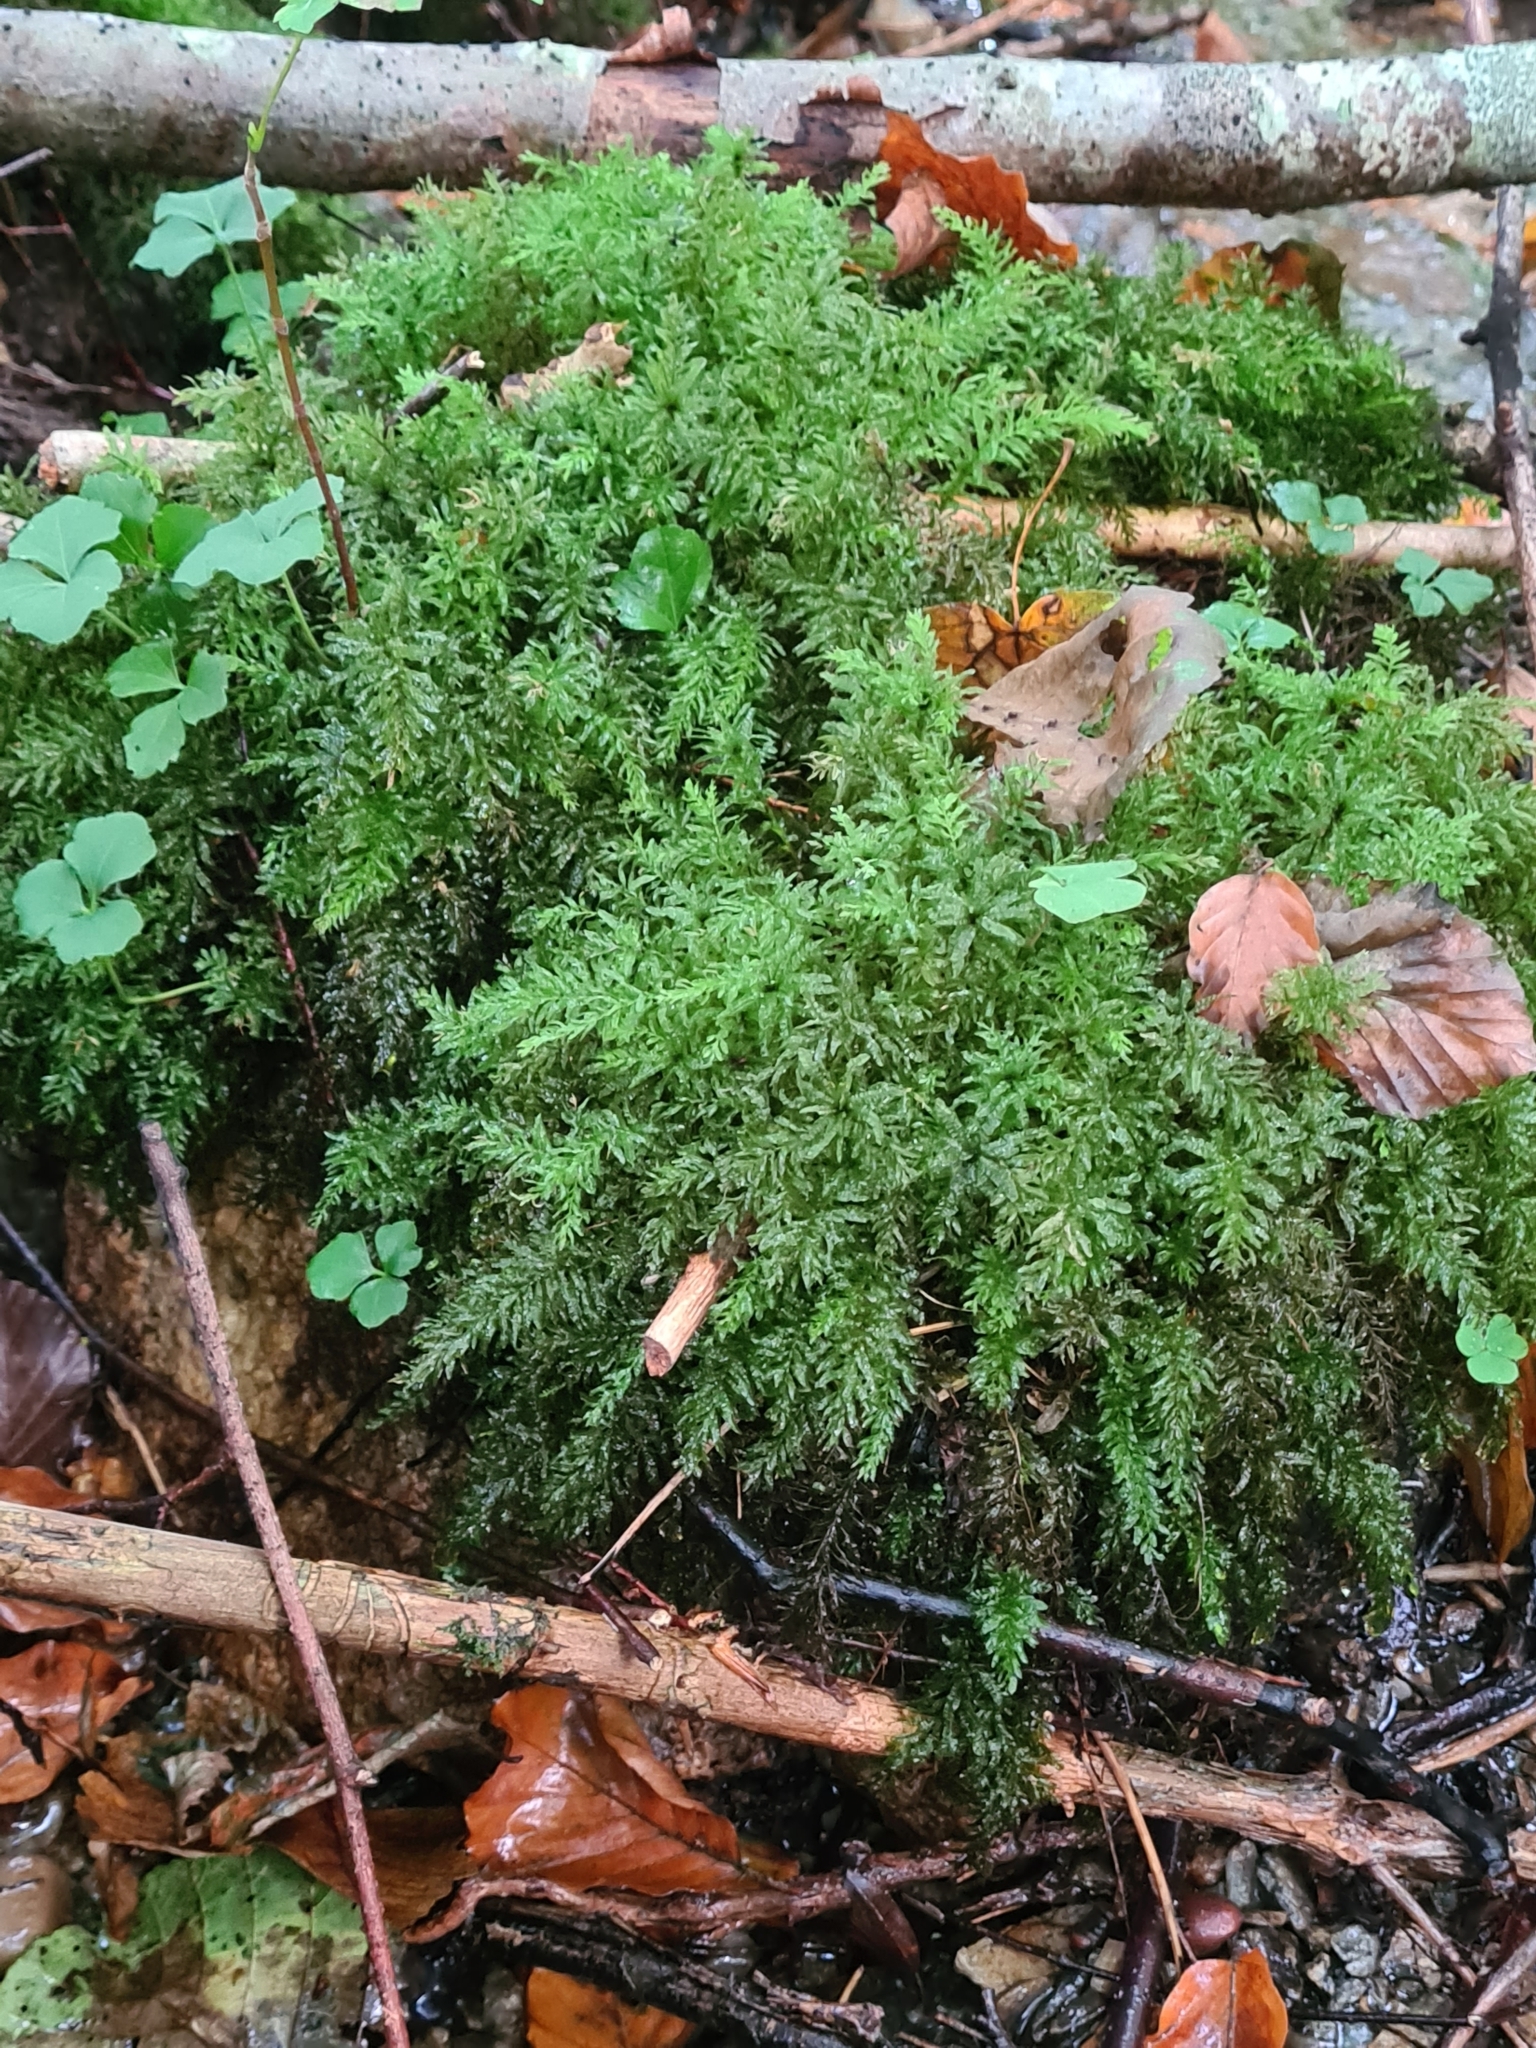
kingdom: Plantae
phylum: Bryophyta
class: Bryopsida
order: Bryales
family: Mniaceae
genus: Plagiomnium
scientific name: Plagiomnium undulatum
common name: Hart's-tongue thyme-moss
